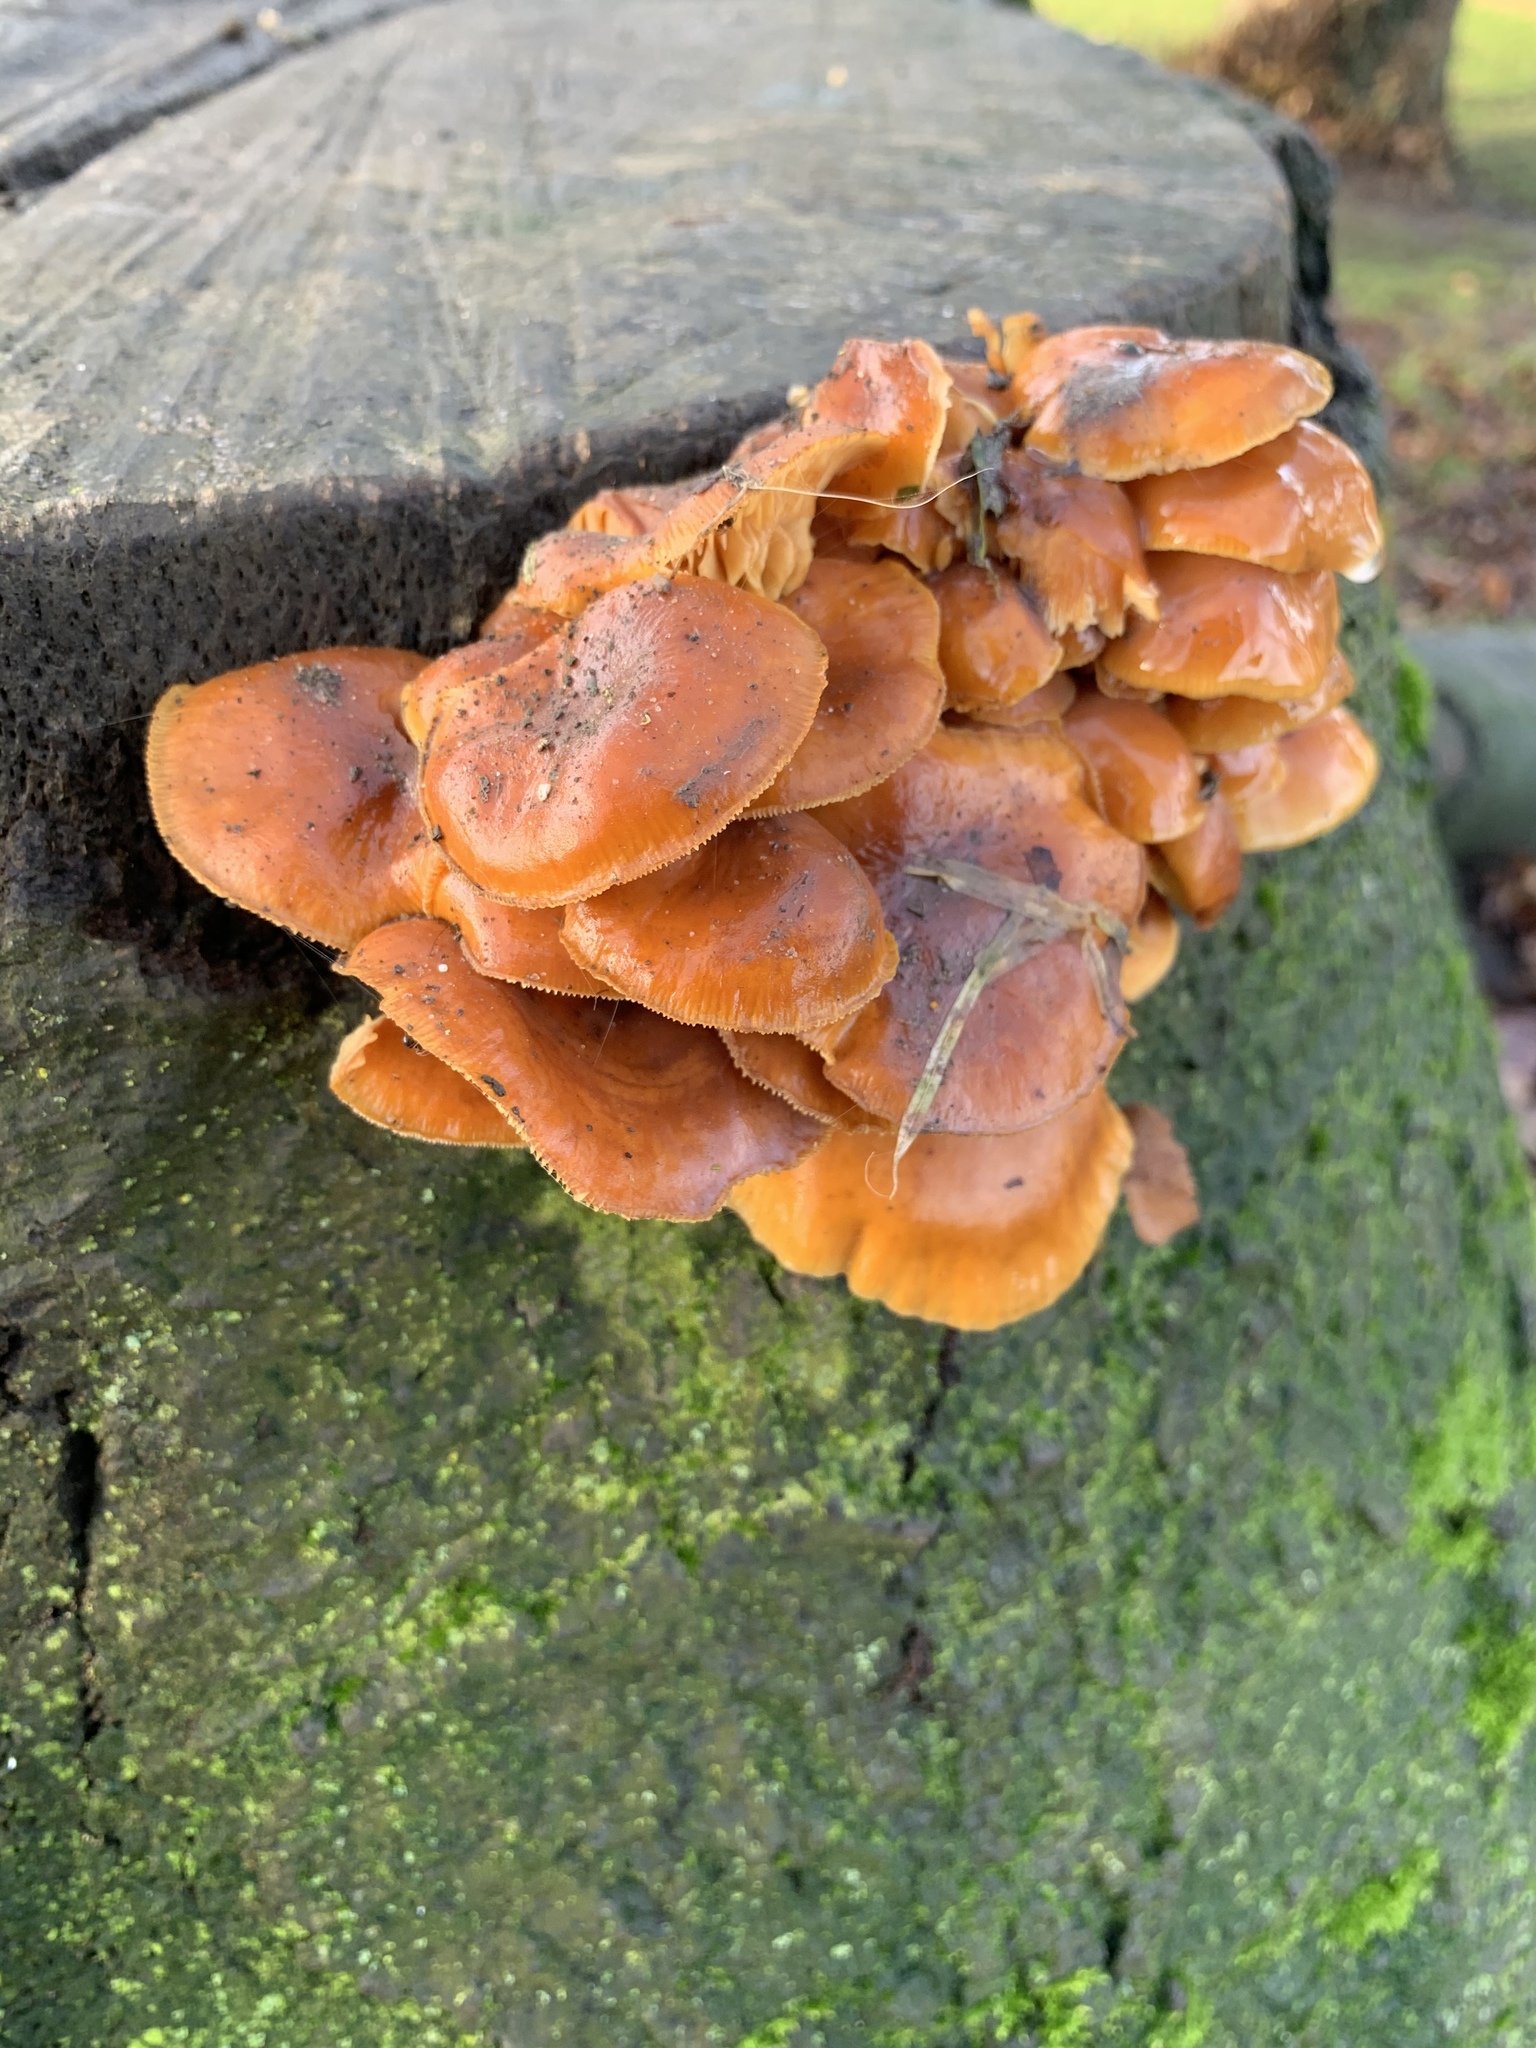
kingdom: Fungi
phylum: Basidiomycota
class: Agaricomycetes
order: Agaricales
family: Physalacriaceae
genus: Flammulina
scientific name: Flammulina
